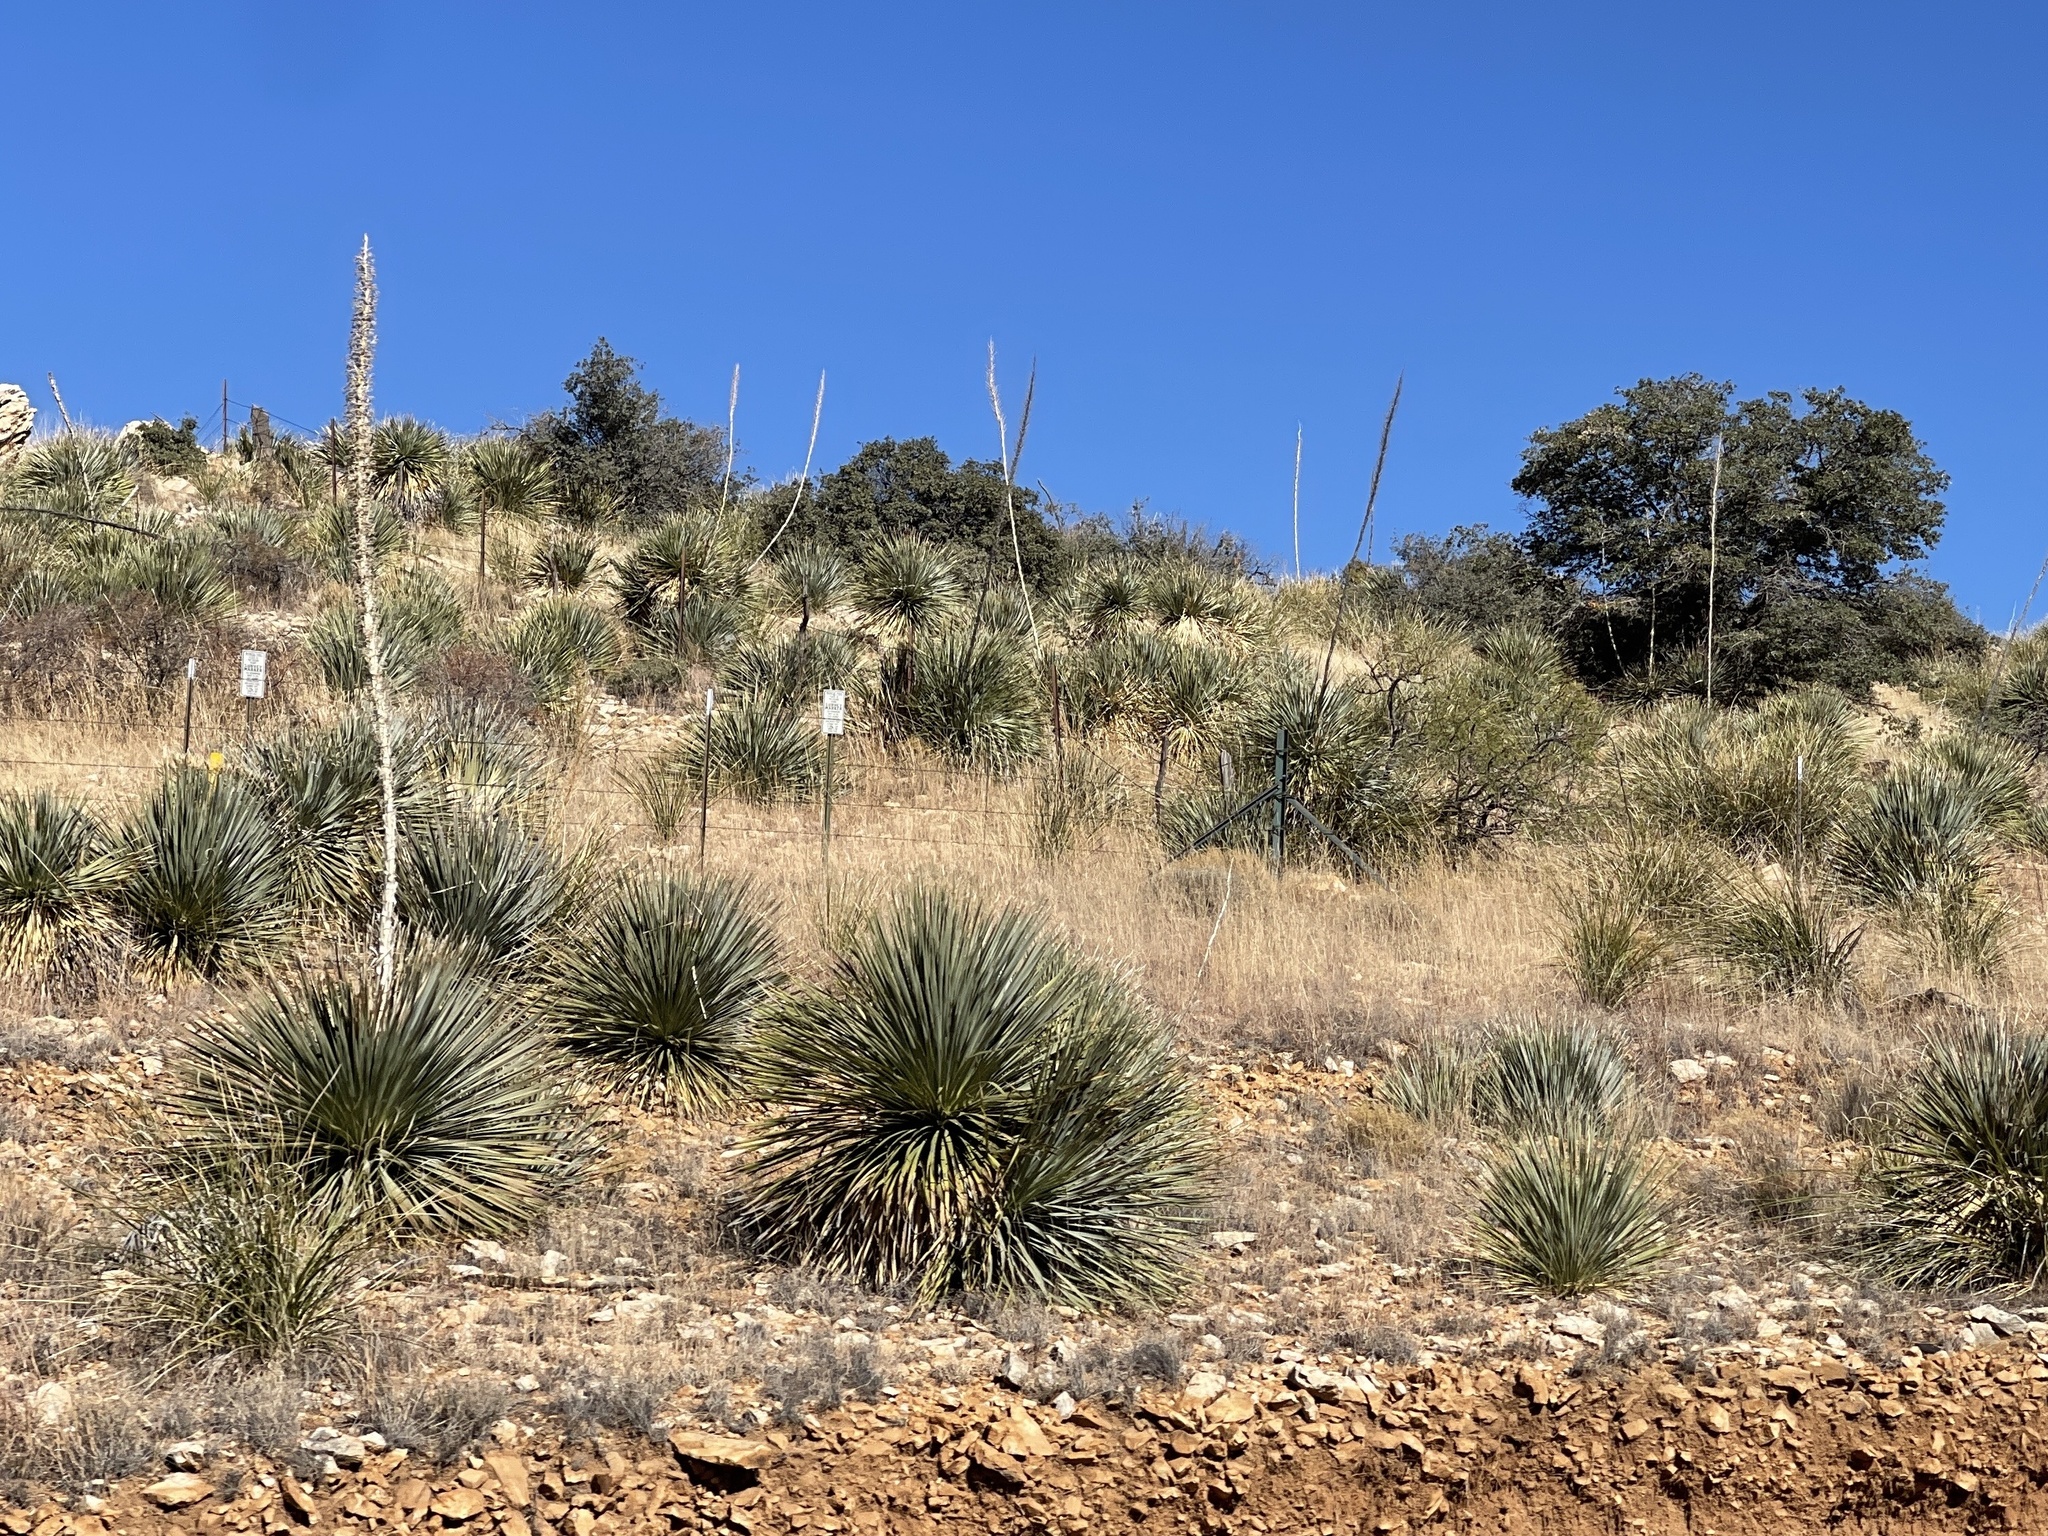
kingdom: Plantae
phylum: Tracheophyta
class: Liliopsida
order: Asparagales
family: Asparagaceae
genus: Dasylirion
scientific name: Dasylirion wheeleri
